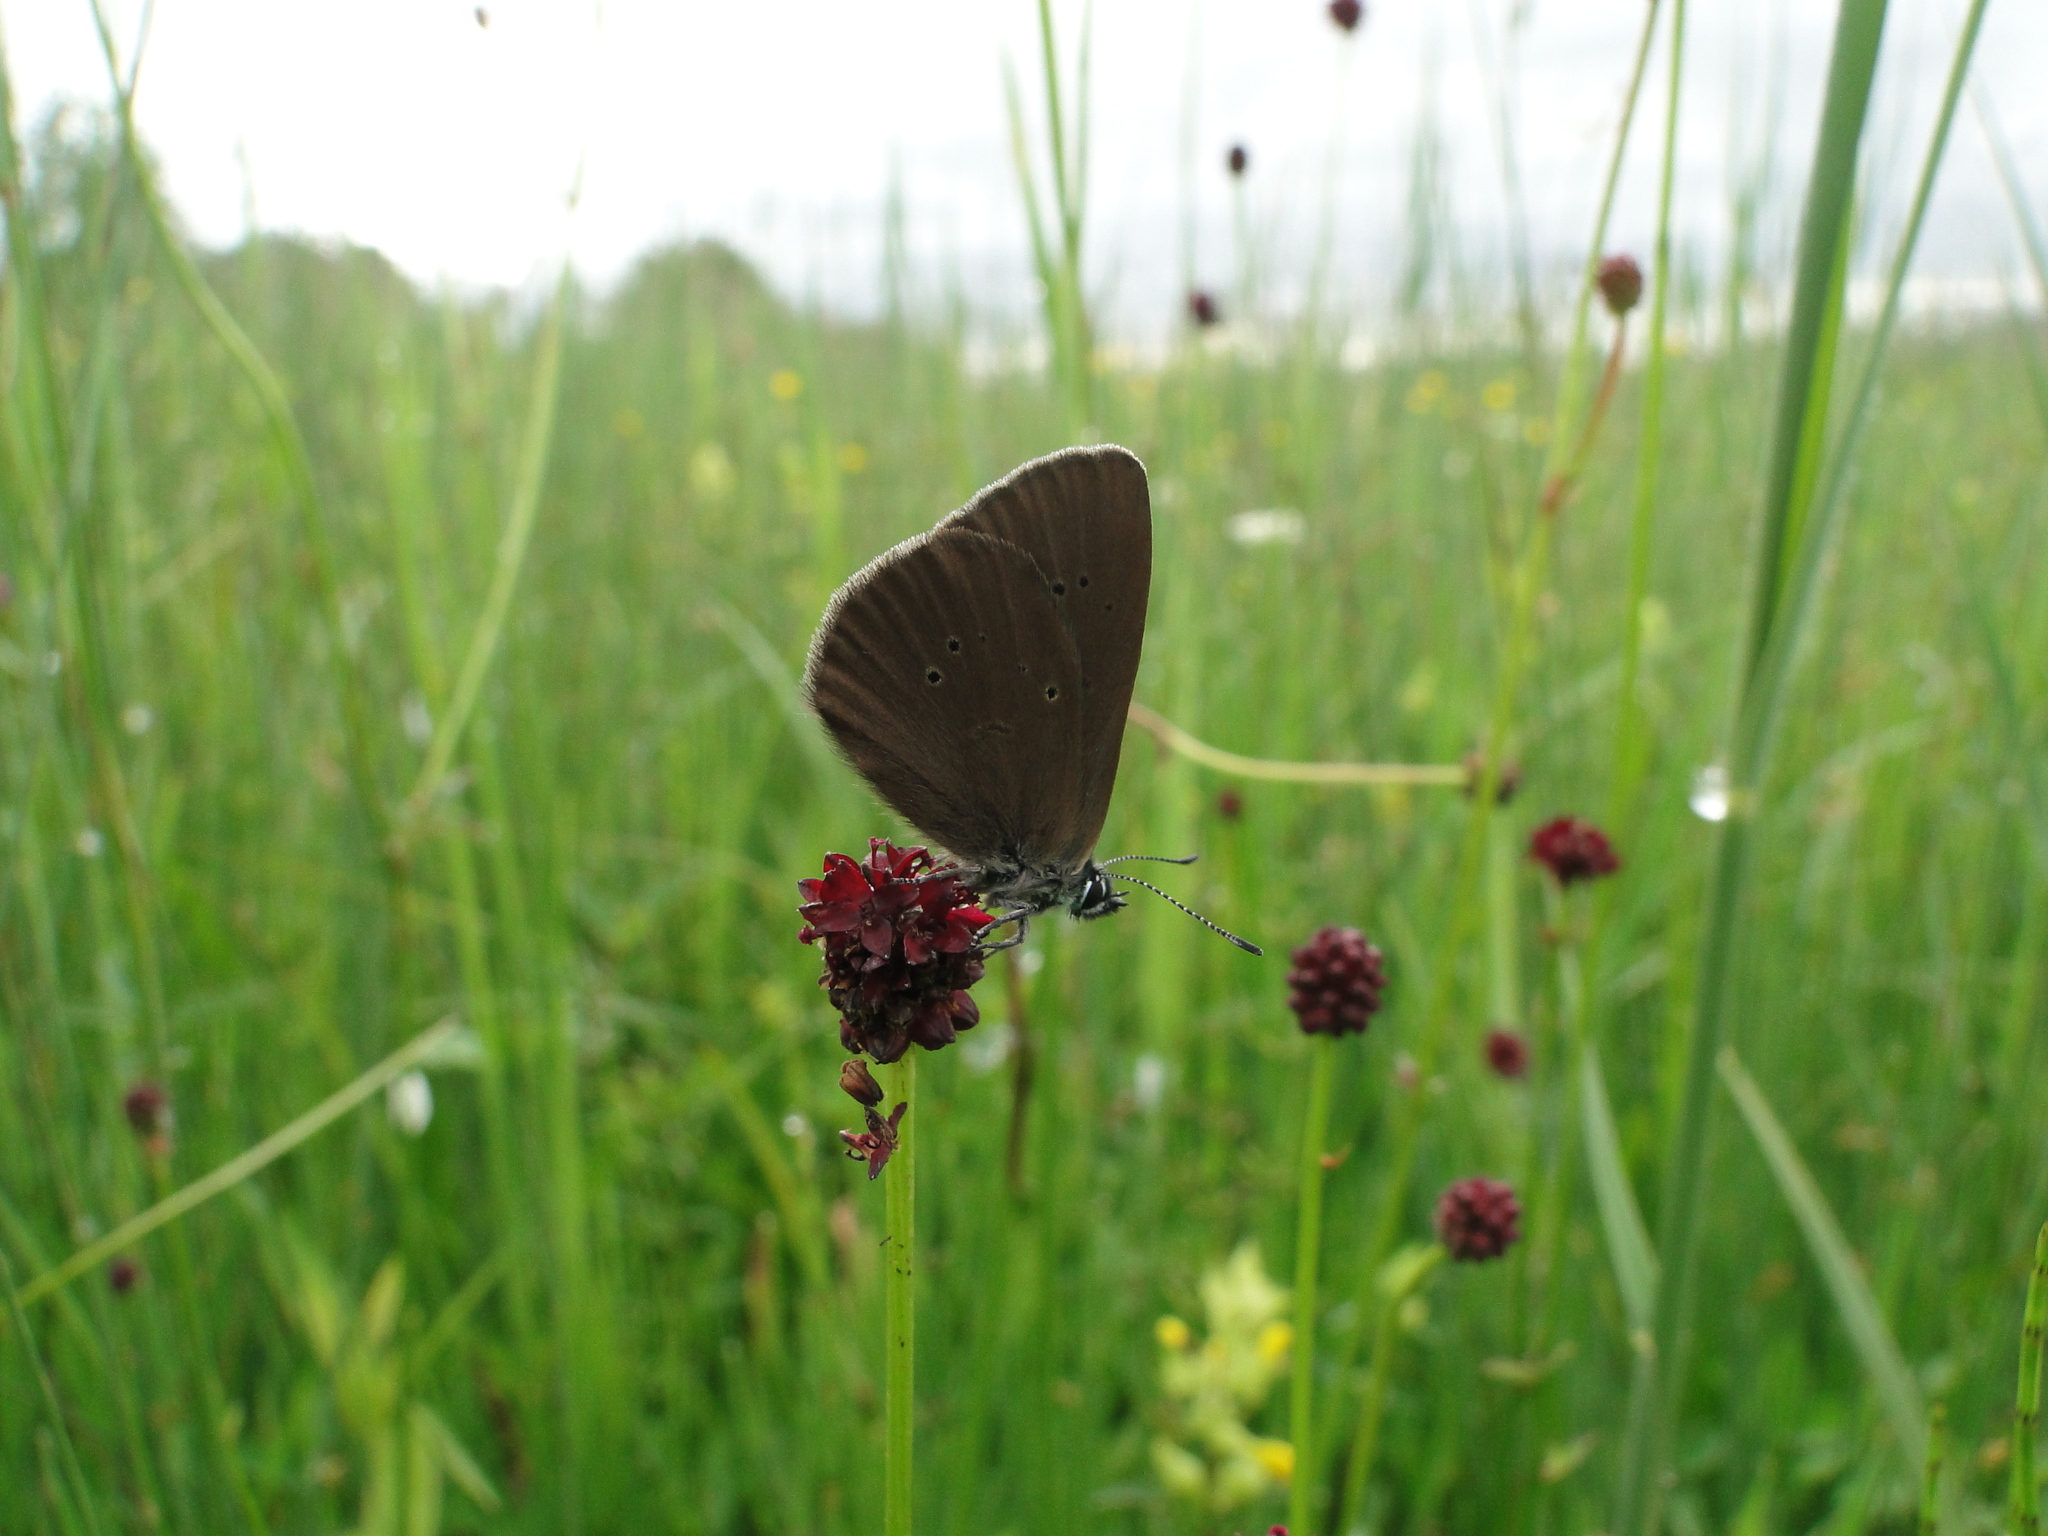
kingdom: Animalia
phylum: Arthropoda
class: Insecta
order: Lepidoptera
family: Lycaenidae
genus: Maculinea
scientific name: Maculinea nausithous
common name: Dusky large blue
